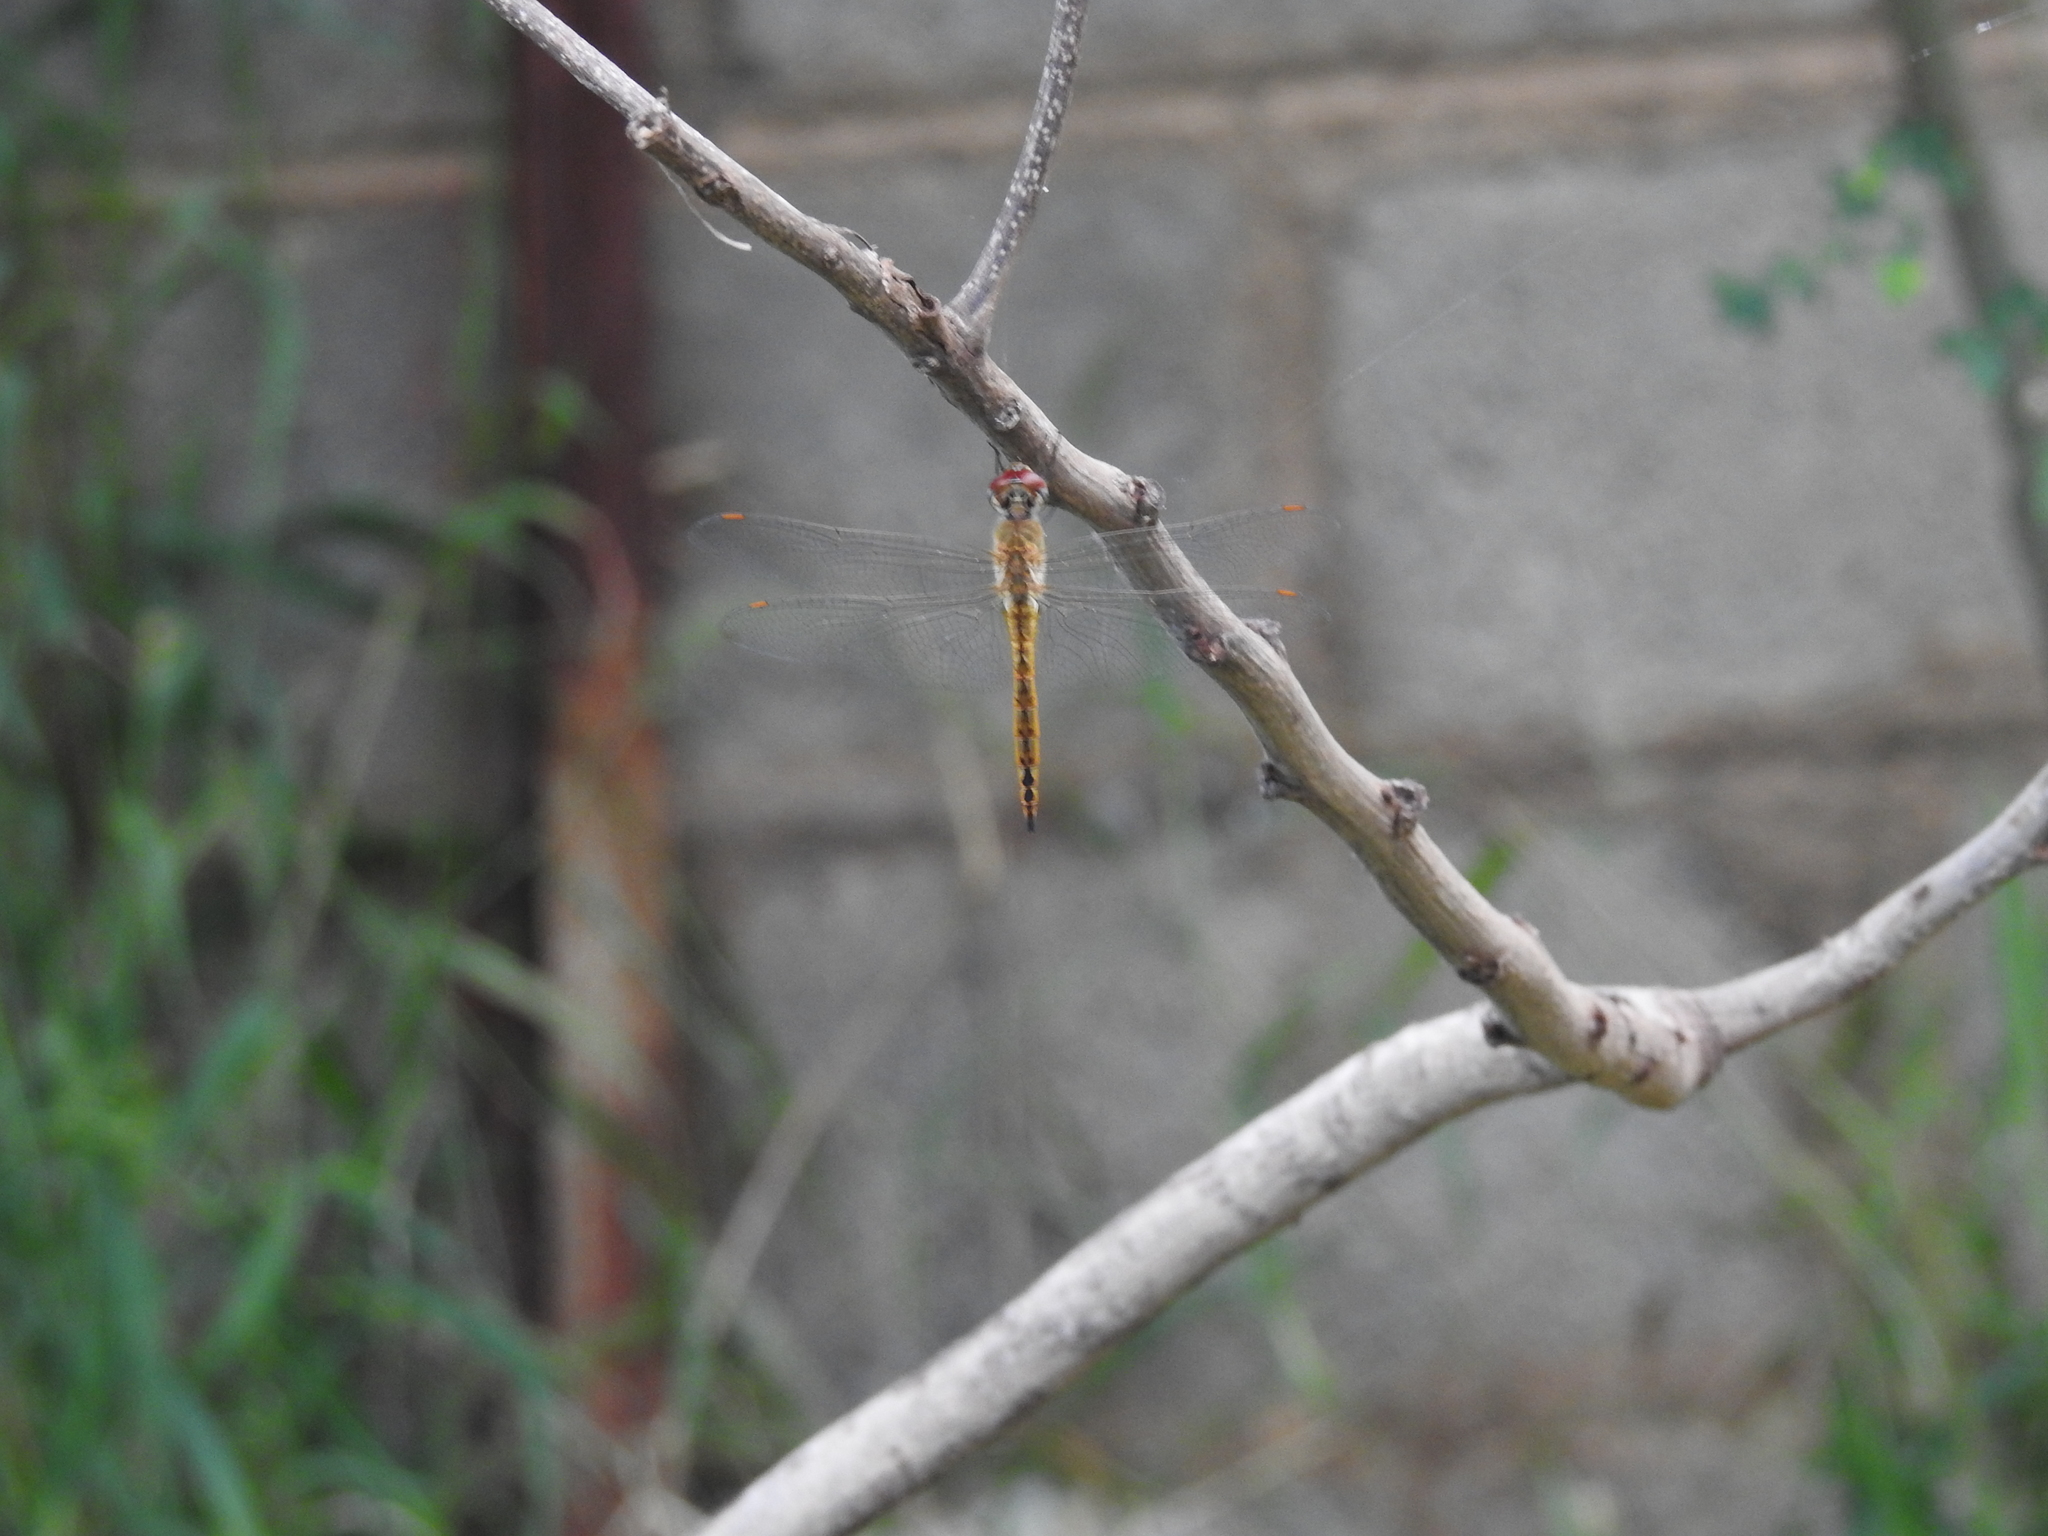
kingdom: Animalia
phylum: Arthropoda
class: Insecta
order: Odonata
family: Libellulidae
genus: Pantala
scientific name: Pantala flavescens
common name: Wandering glider
